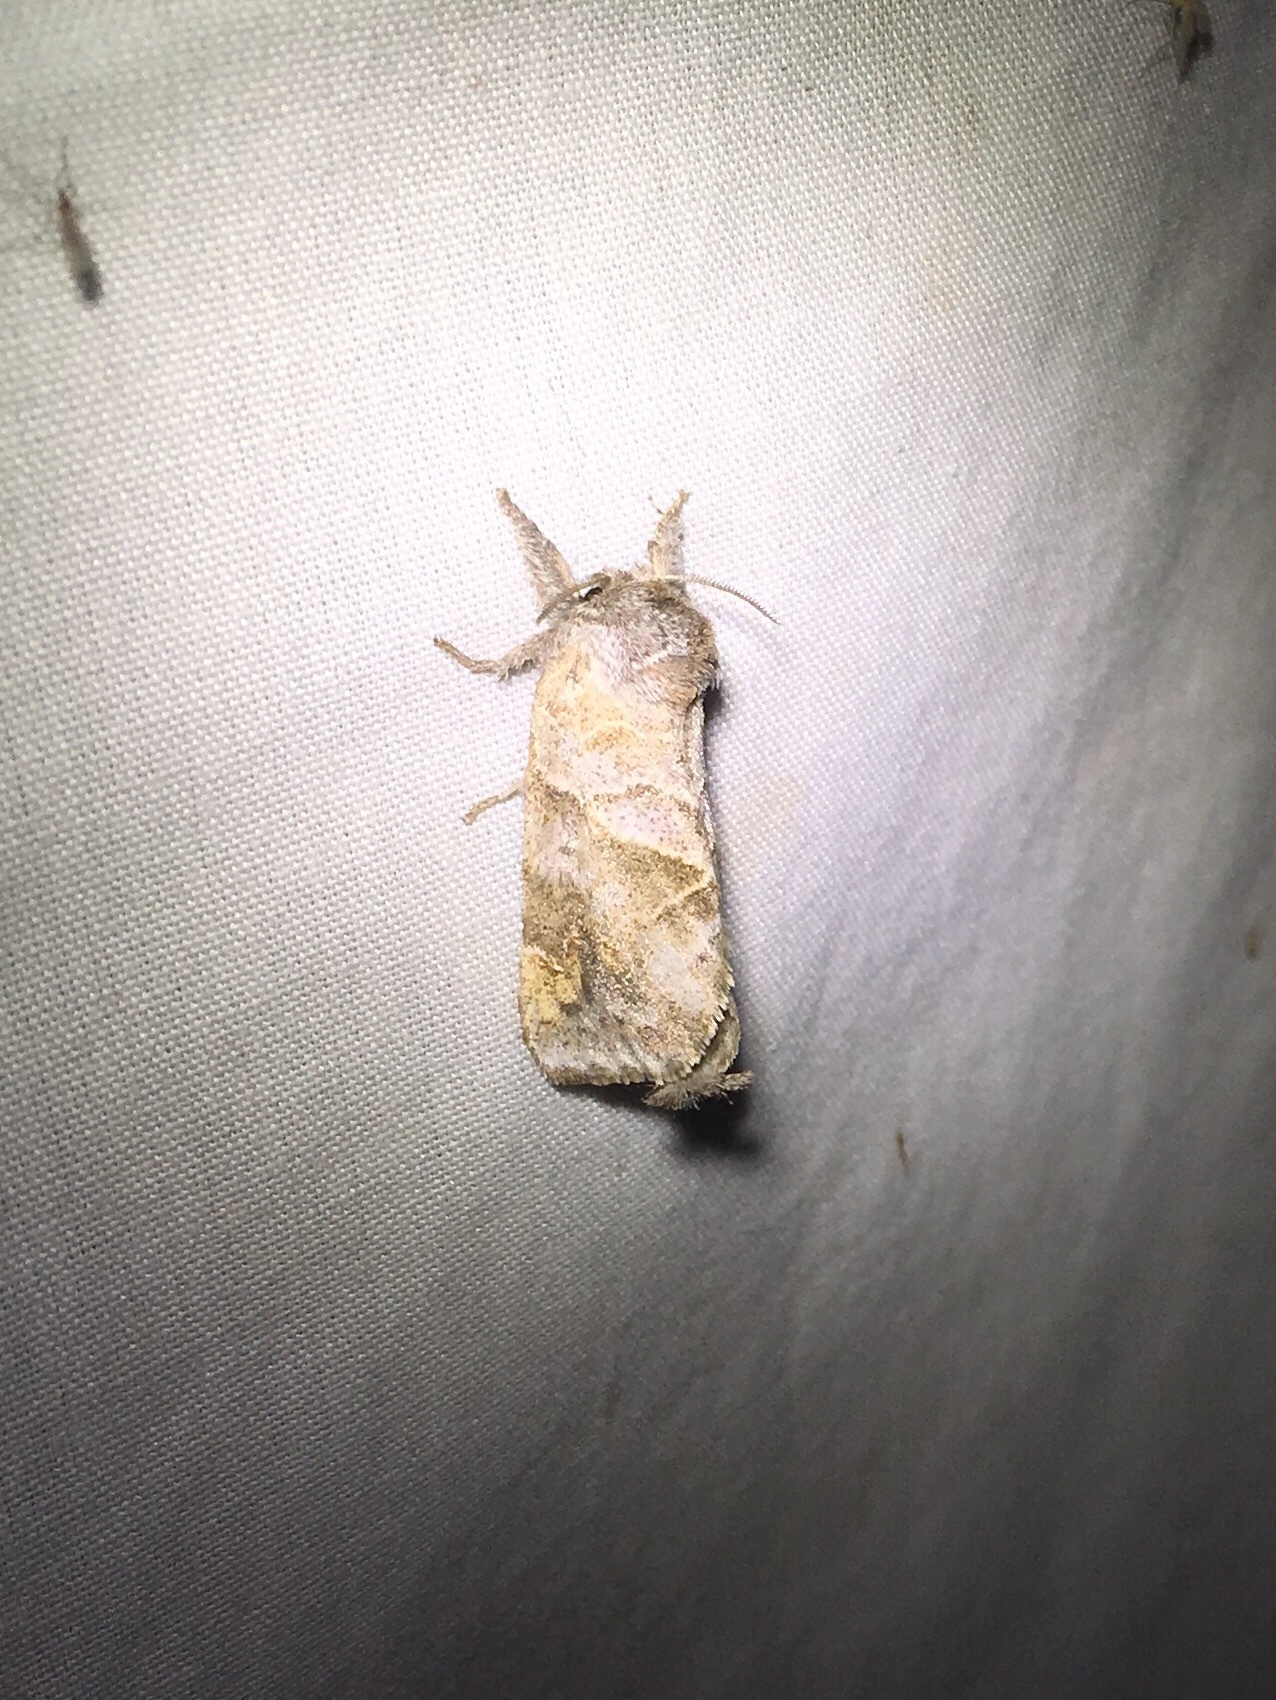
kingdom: Animalia
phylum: Arthropoda
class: Insecta
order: Lepidoptera
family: Notodontidae
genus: Clostera
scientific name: Clostera strigosa
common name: Striped chocolate-tip moth
